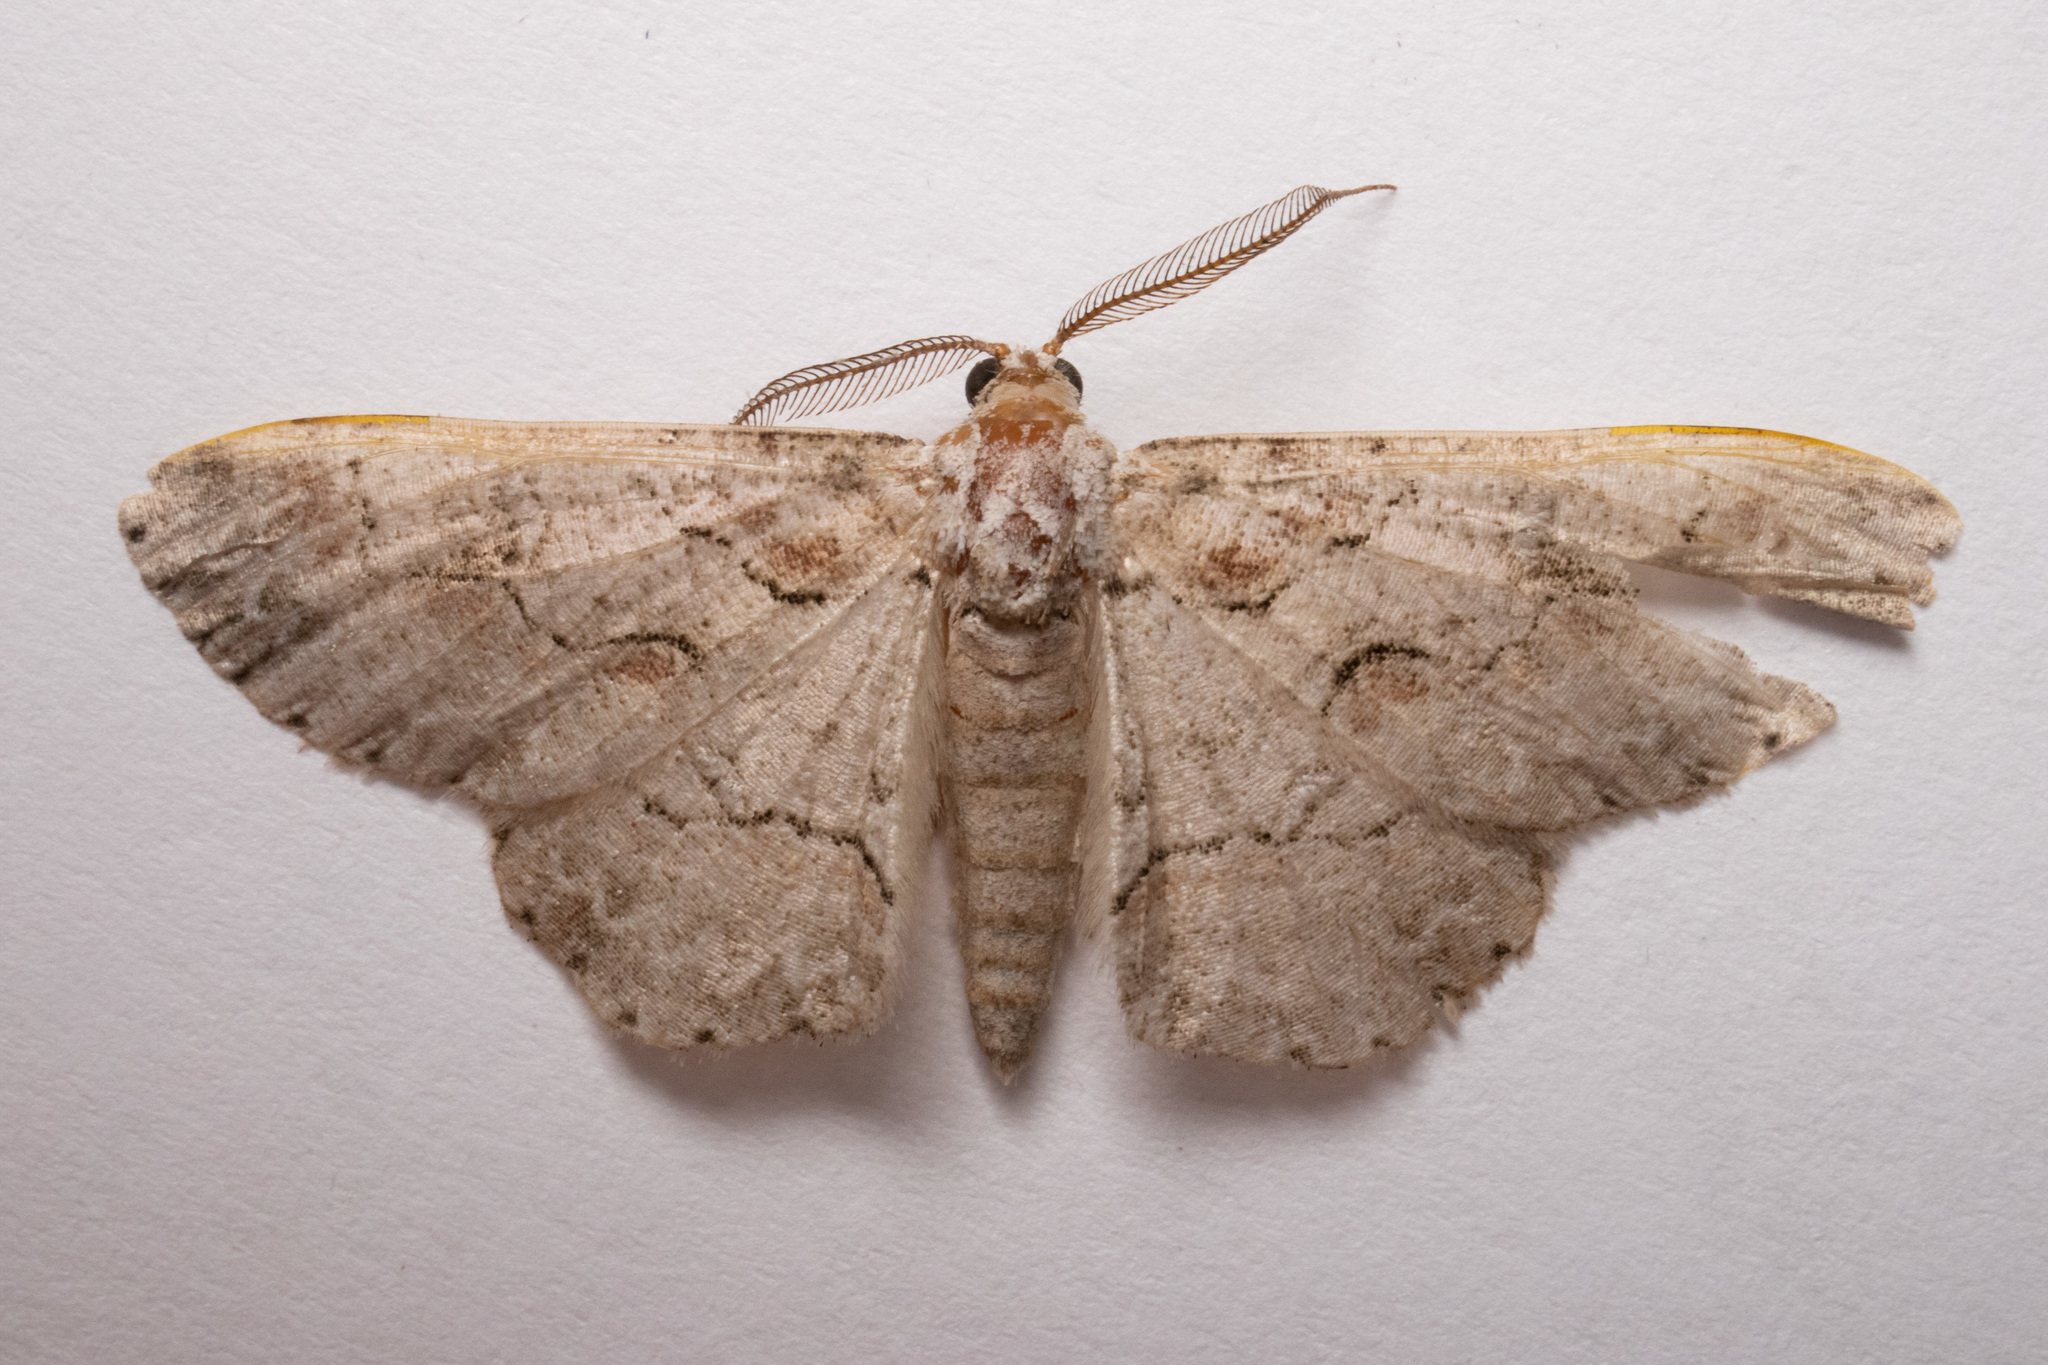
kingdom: Animalia
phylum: Arthropoda
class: Insecta
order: Lepidoptera
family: Geometridae
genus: Iridopsis
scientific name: Iridopsis defectaria
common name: Brown-shaded gray
